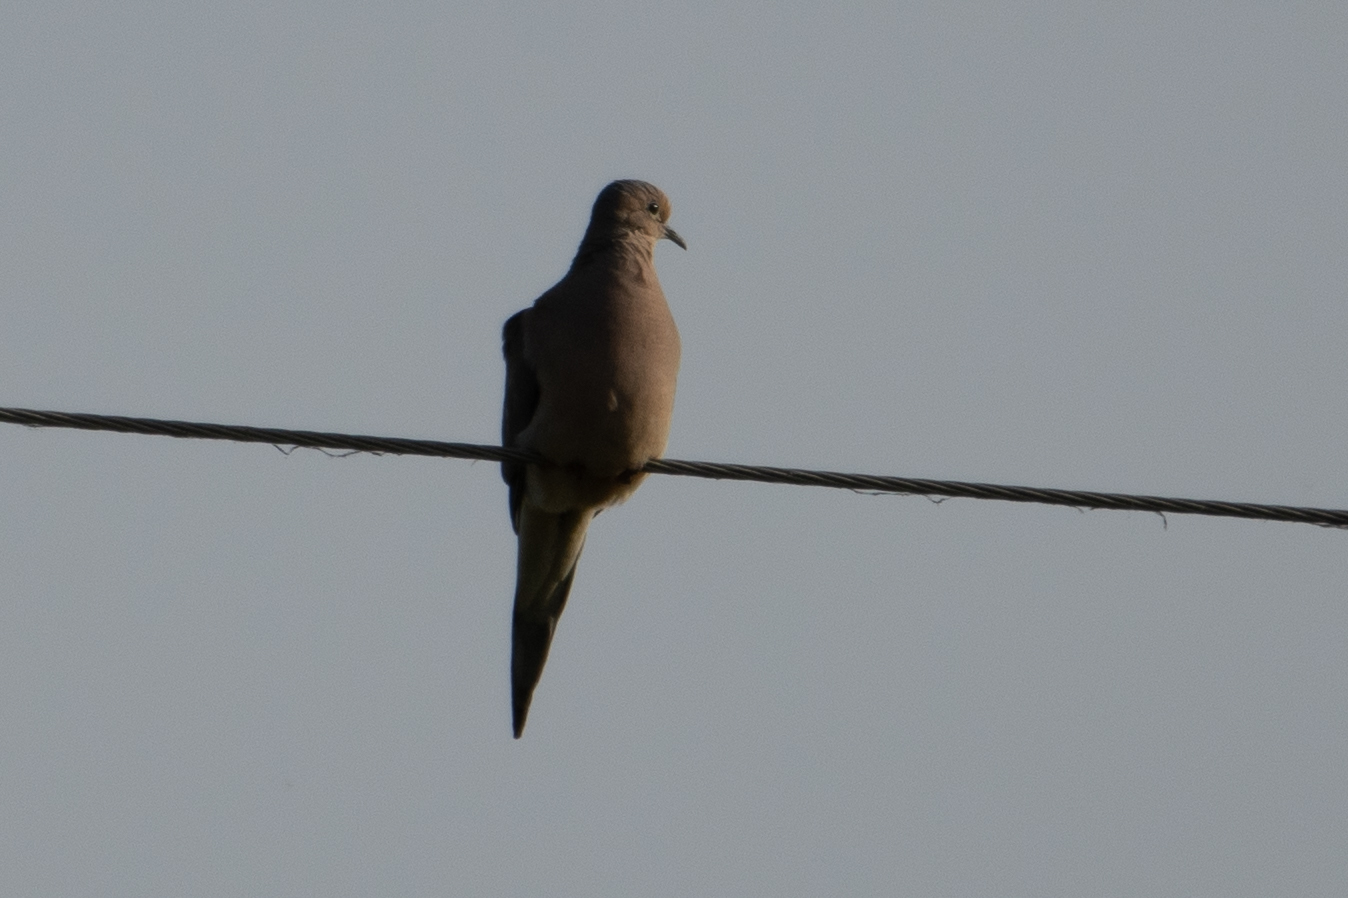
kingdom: Animalia
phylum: Chordata
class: Aves
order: Columbiformes
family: Columbidae
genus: Zenaida
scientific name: Zenaida macroura
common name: Mourning dove
